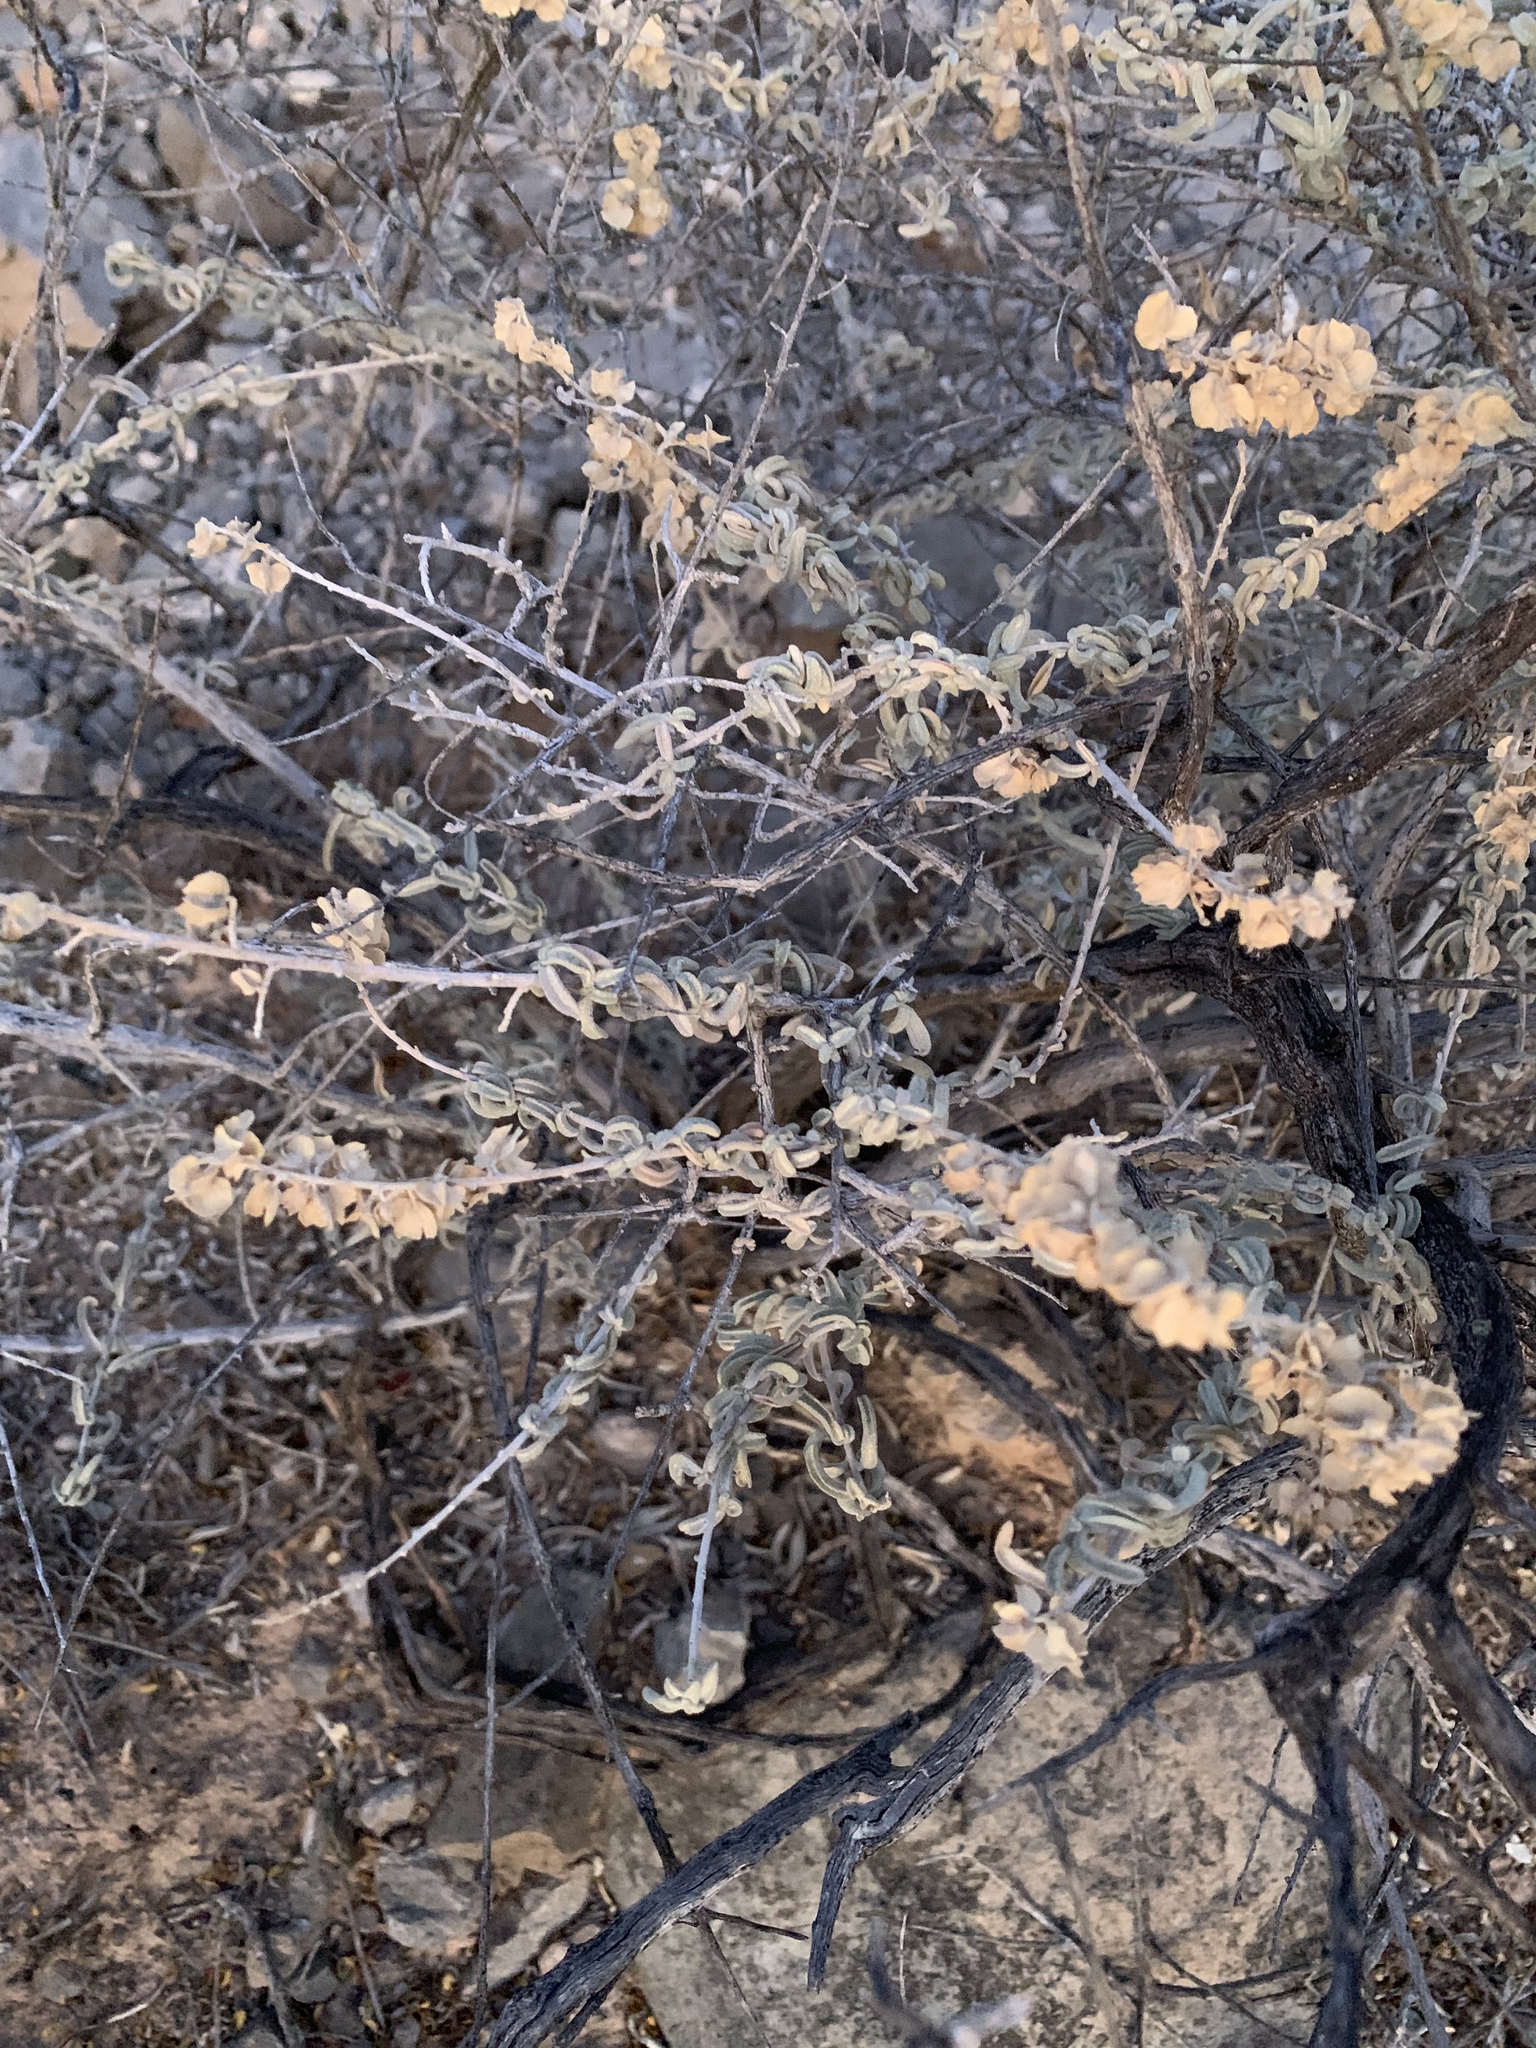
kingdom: Plantae
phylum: Tracheophyta
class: Magnoliopsida
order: Caryophyllales
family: Amaranthaceae
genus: Atriplex
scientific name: Atriplex canescens
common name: Four-wing saltbush
